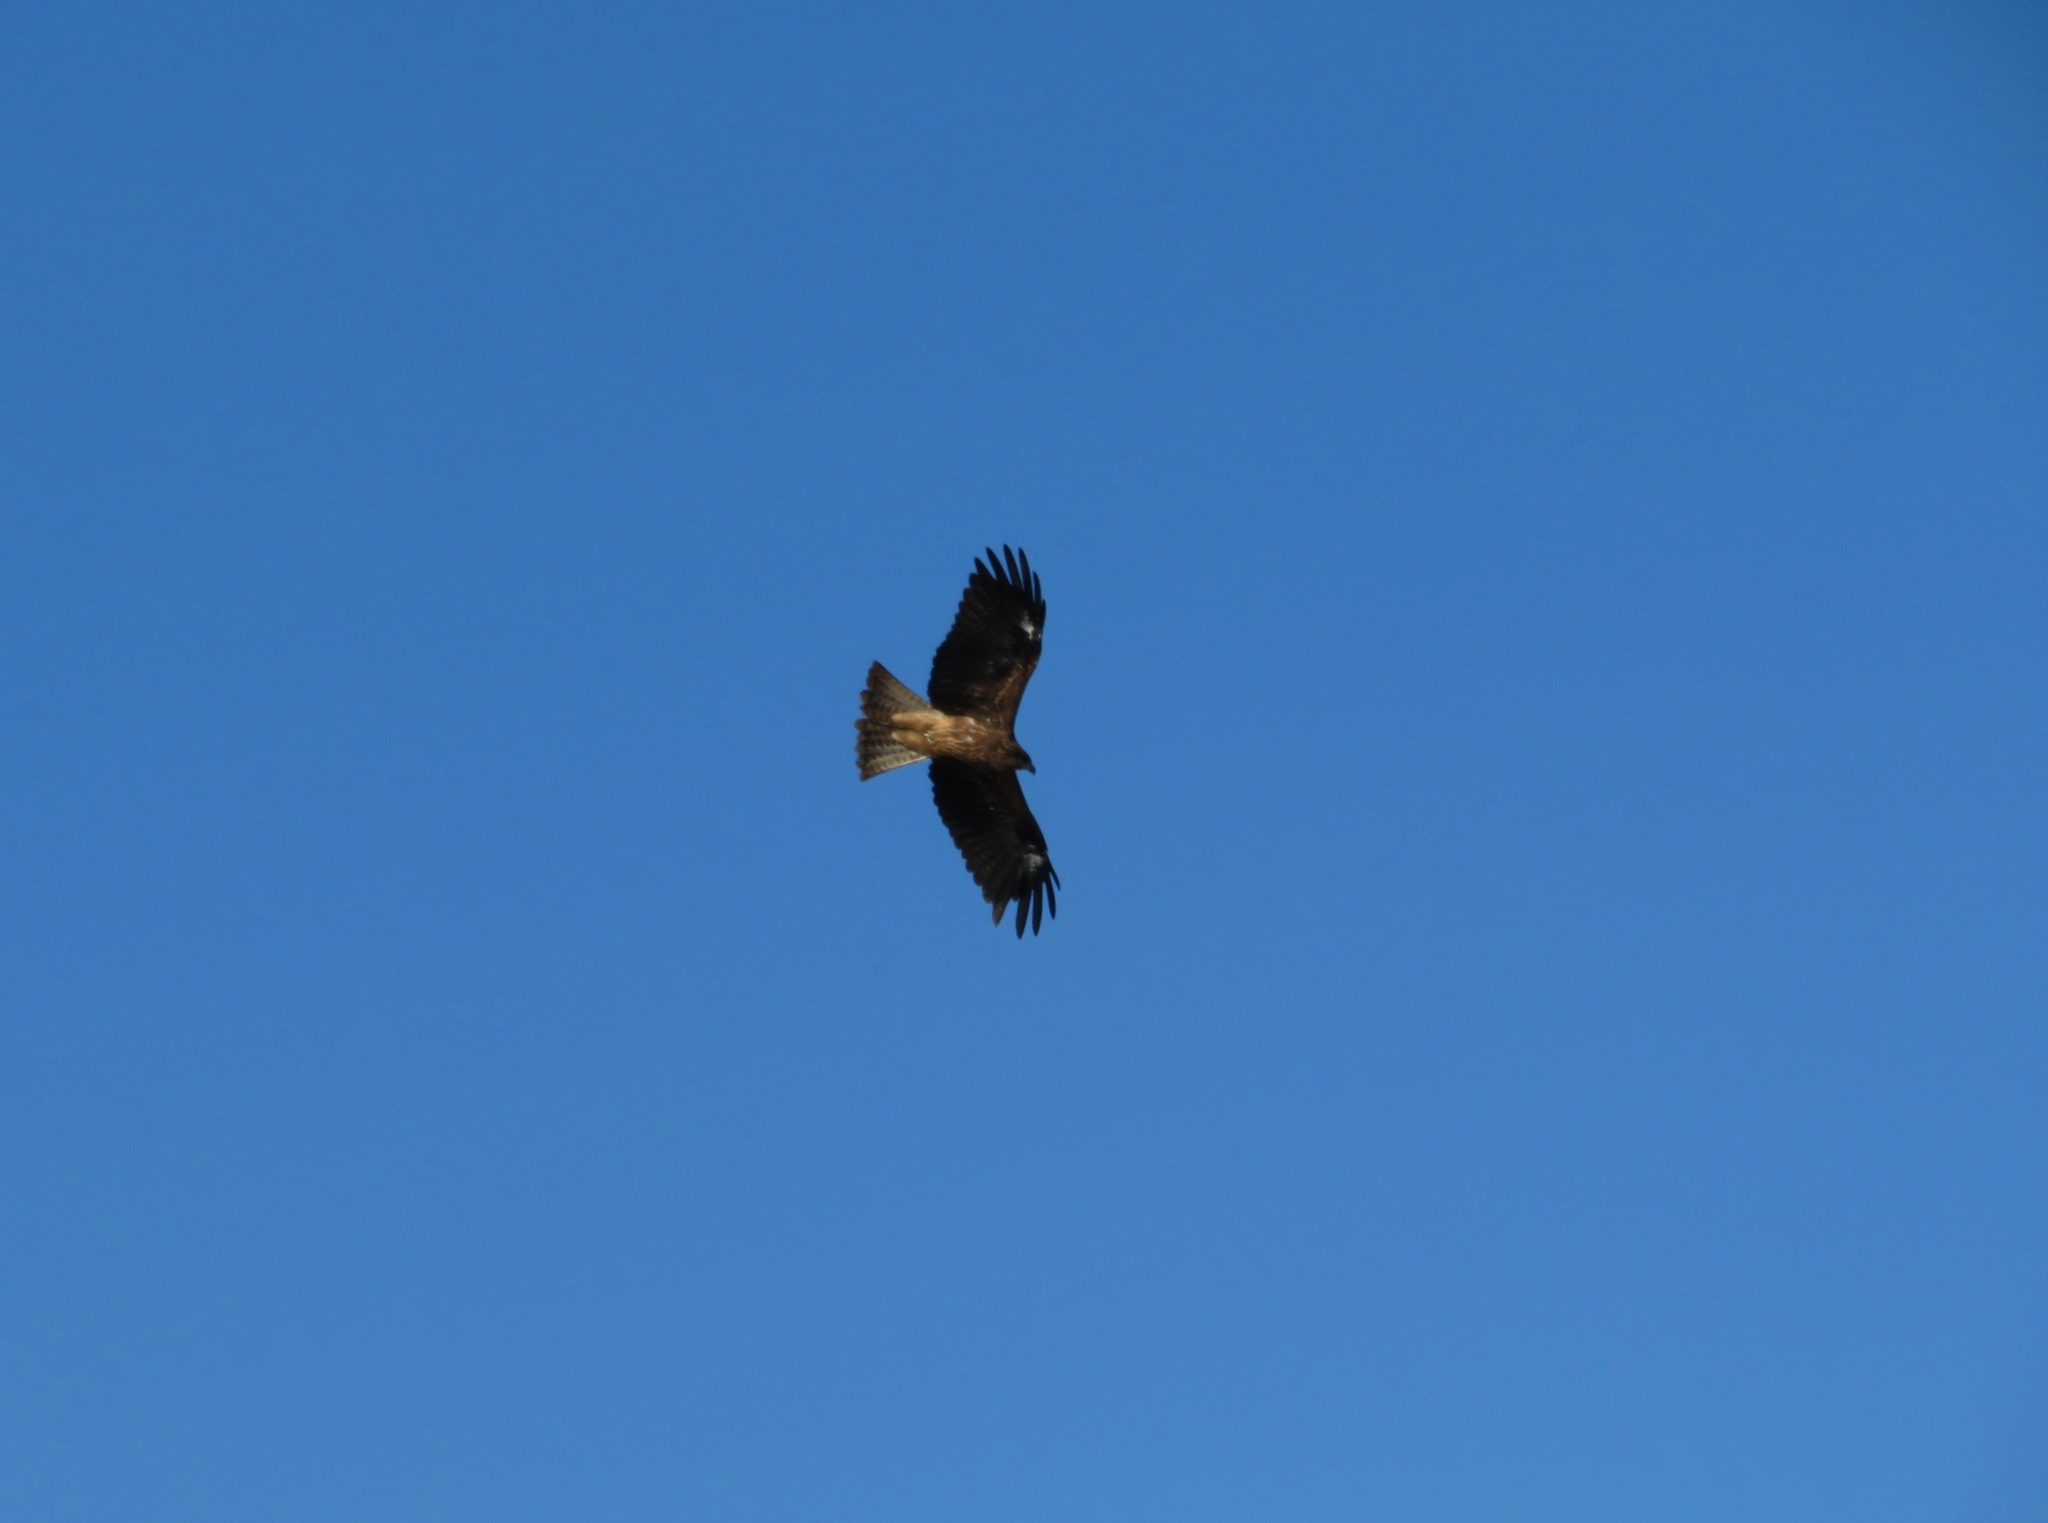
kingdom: Animalia
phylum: Chordata
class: Aves
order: Accipitriformes
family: Accipitridae
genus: Milvus
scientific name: Milvus migrans
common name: Black kite
